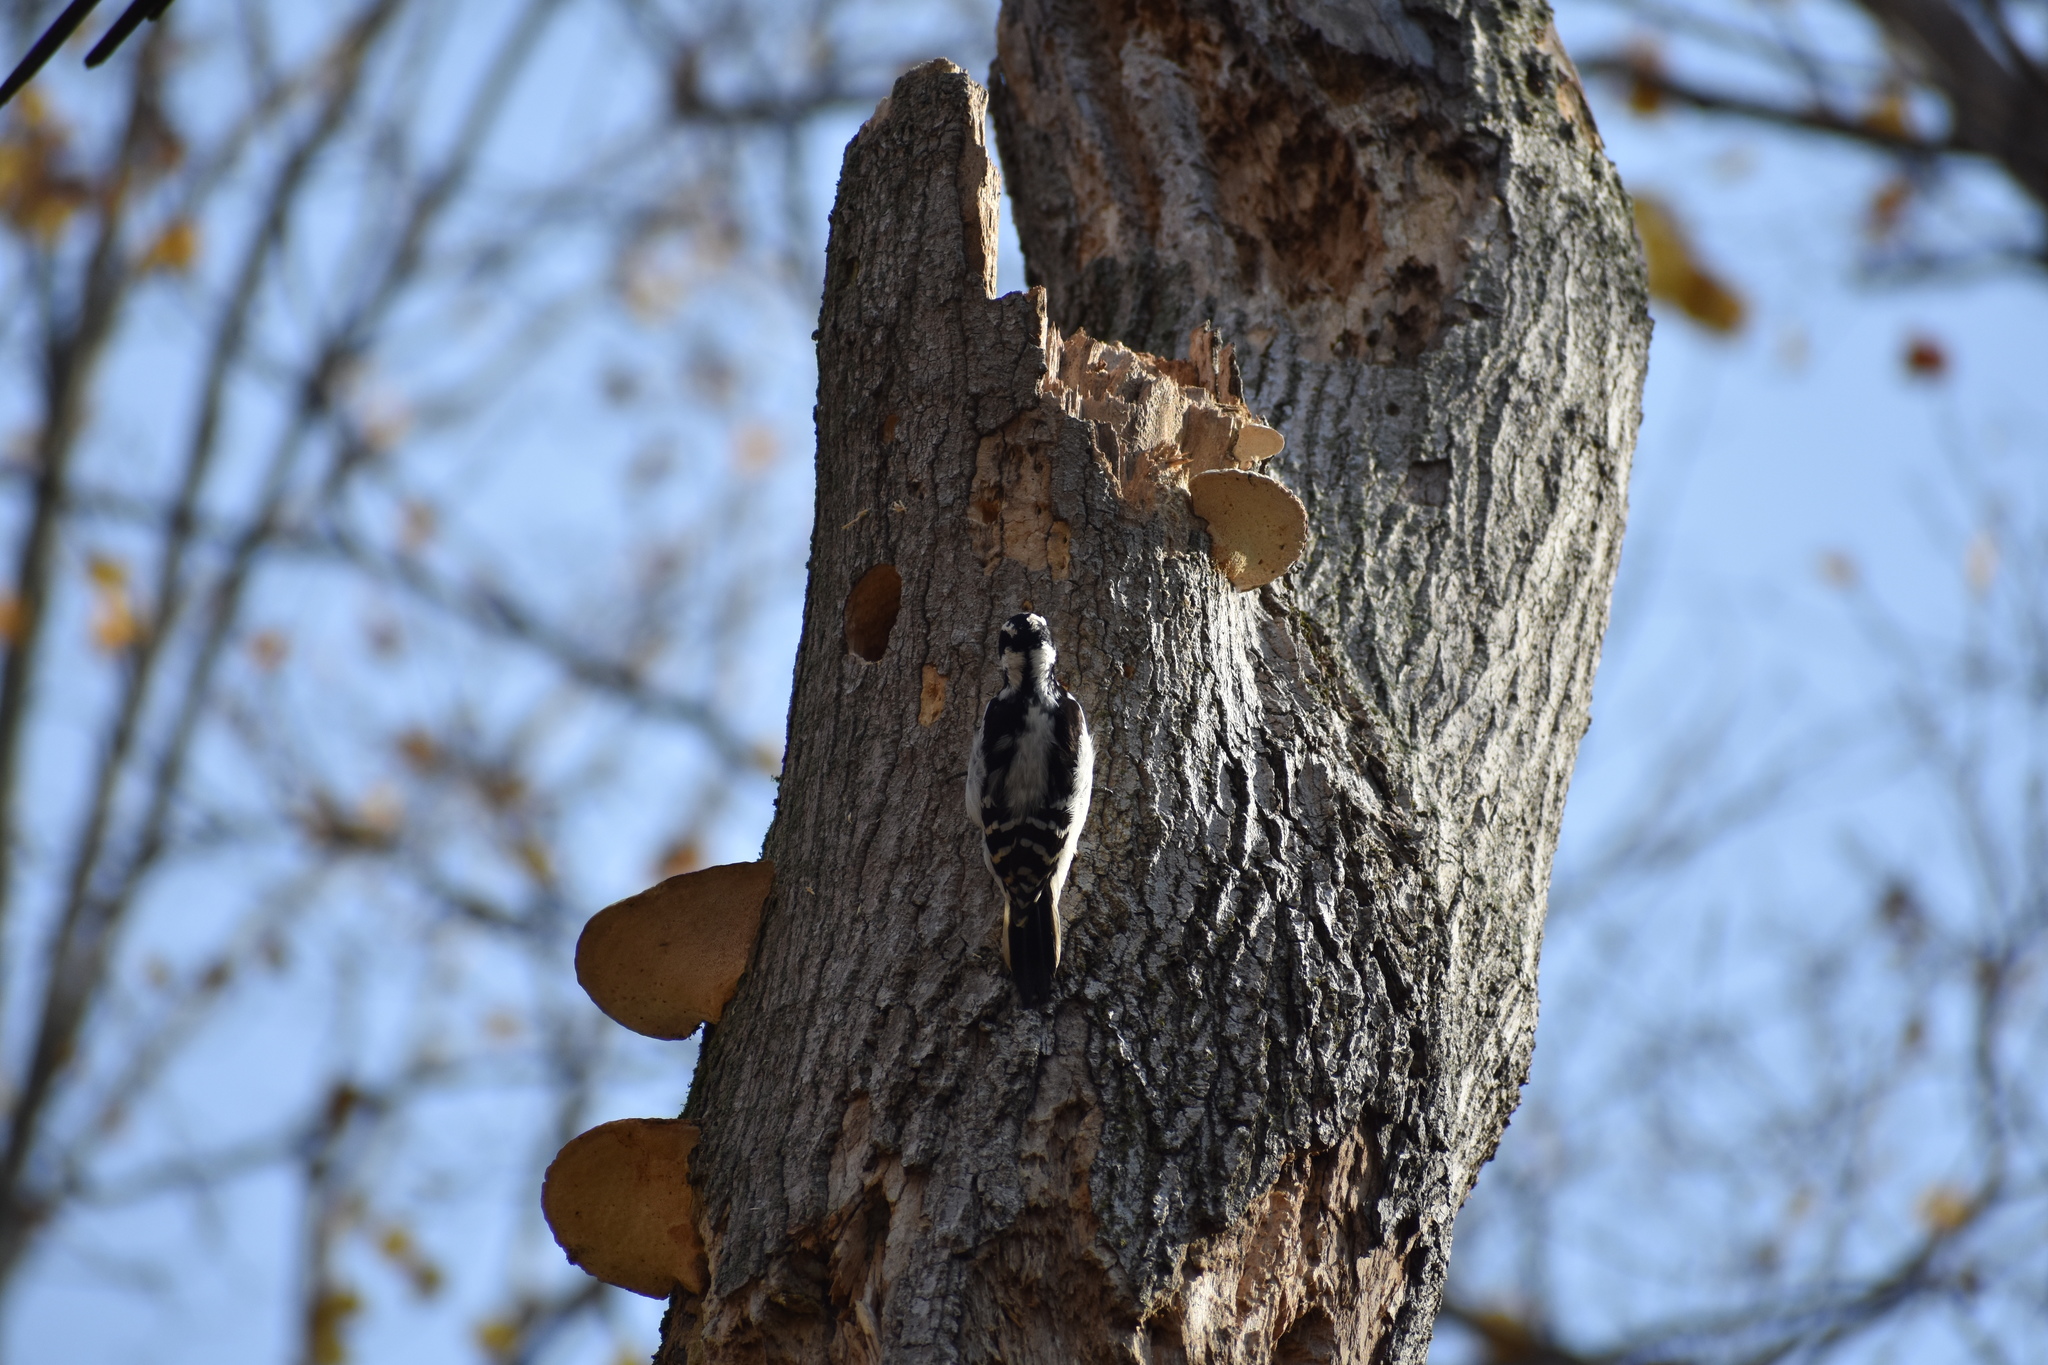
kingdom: Animalia
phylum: Chordata
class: Aves
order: Piciformes
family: Picidae
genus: Leuconotopicus
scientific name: Leuconotopicus villosus
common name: Hairy woodpecker
